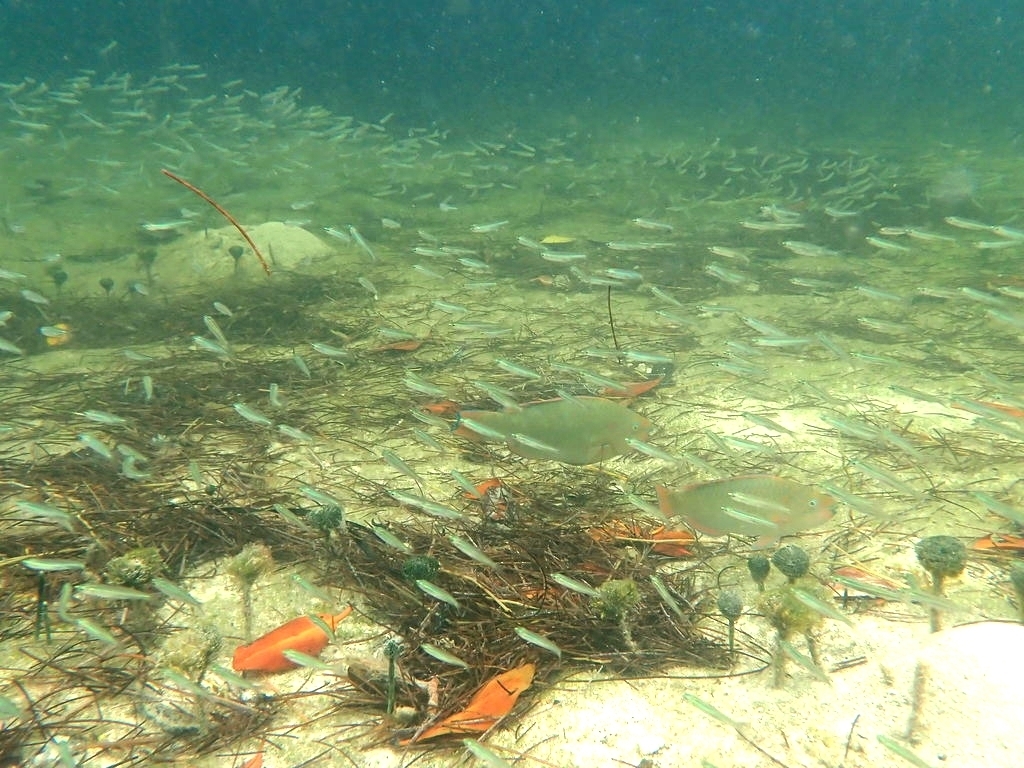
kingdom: Animalia
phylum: Chordata
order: Perciformes
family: Scaridae
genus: Scarus
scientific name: Scarus guacamaia
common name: Rainbow parrotfish
